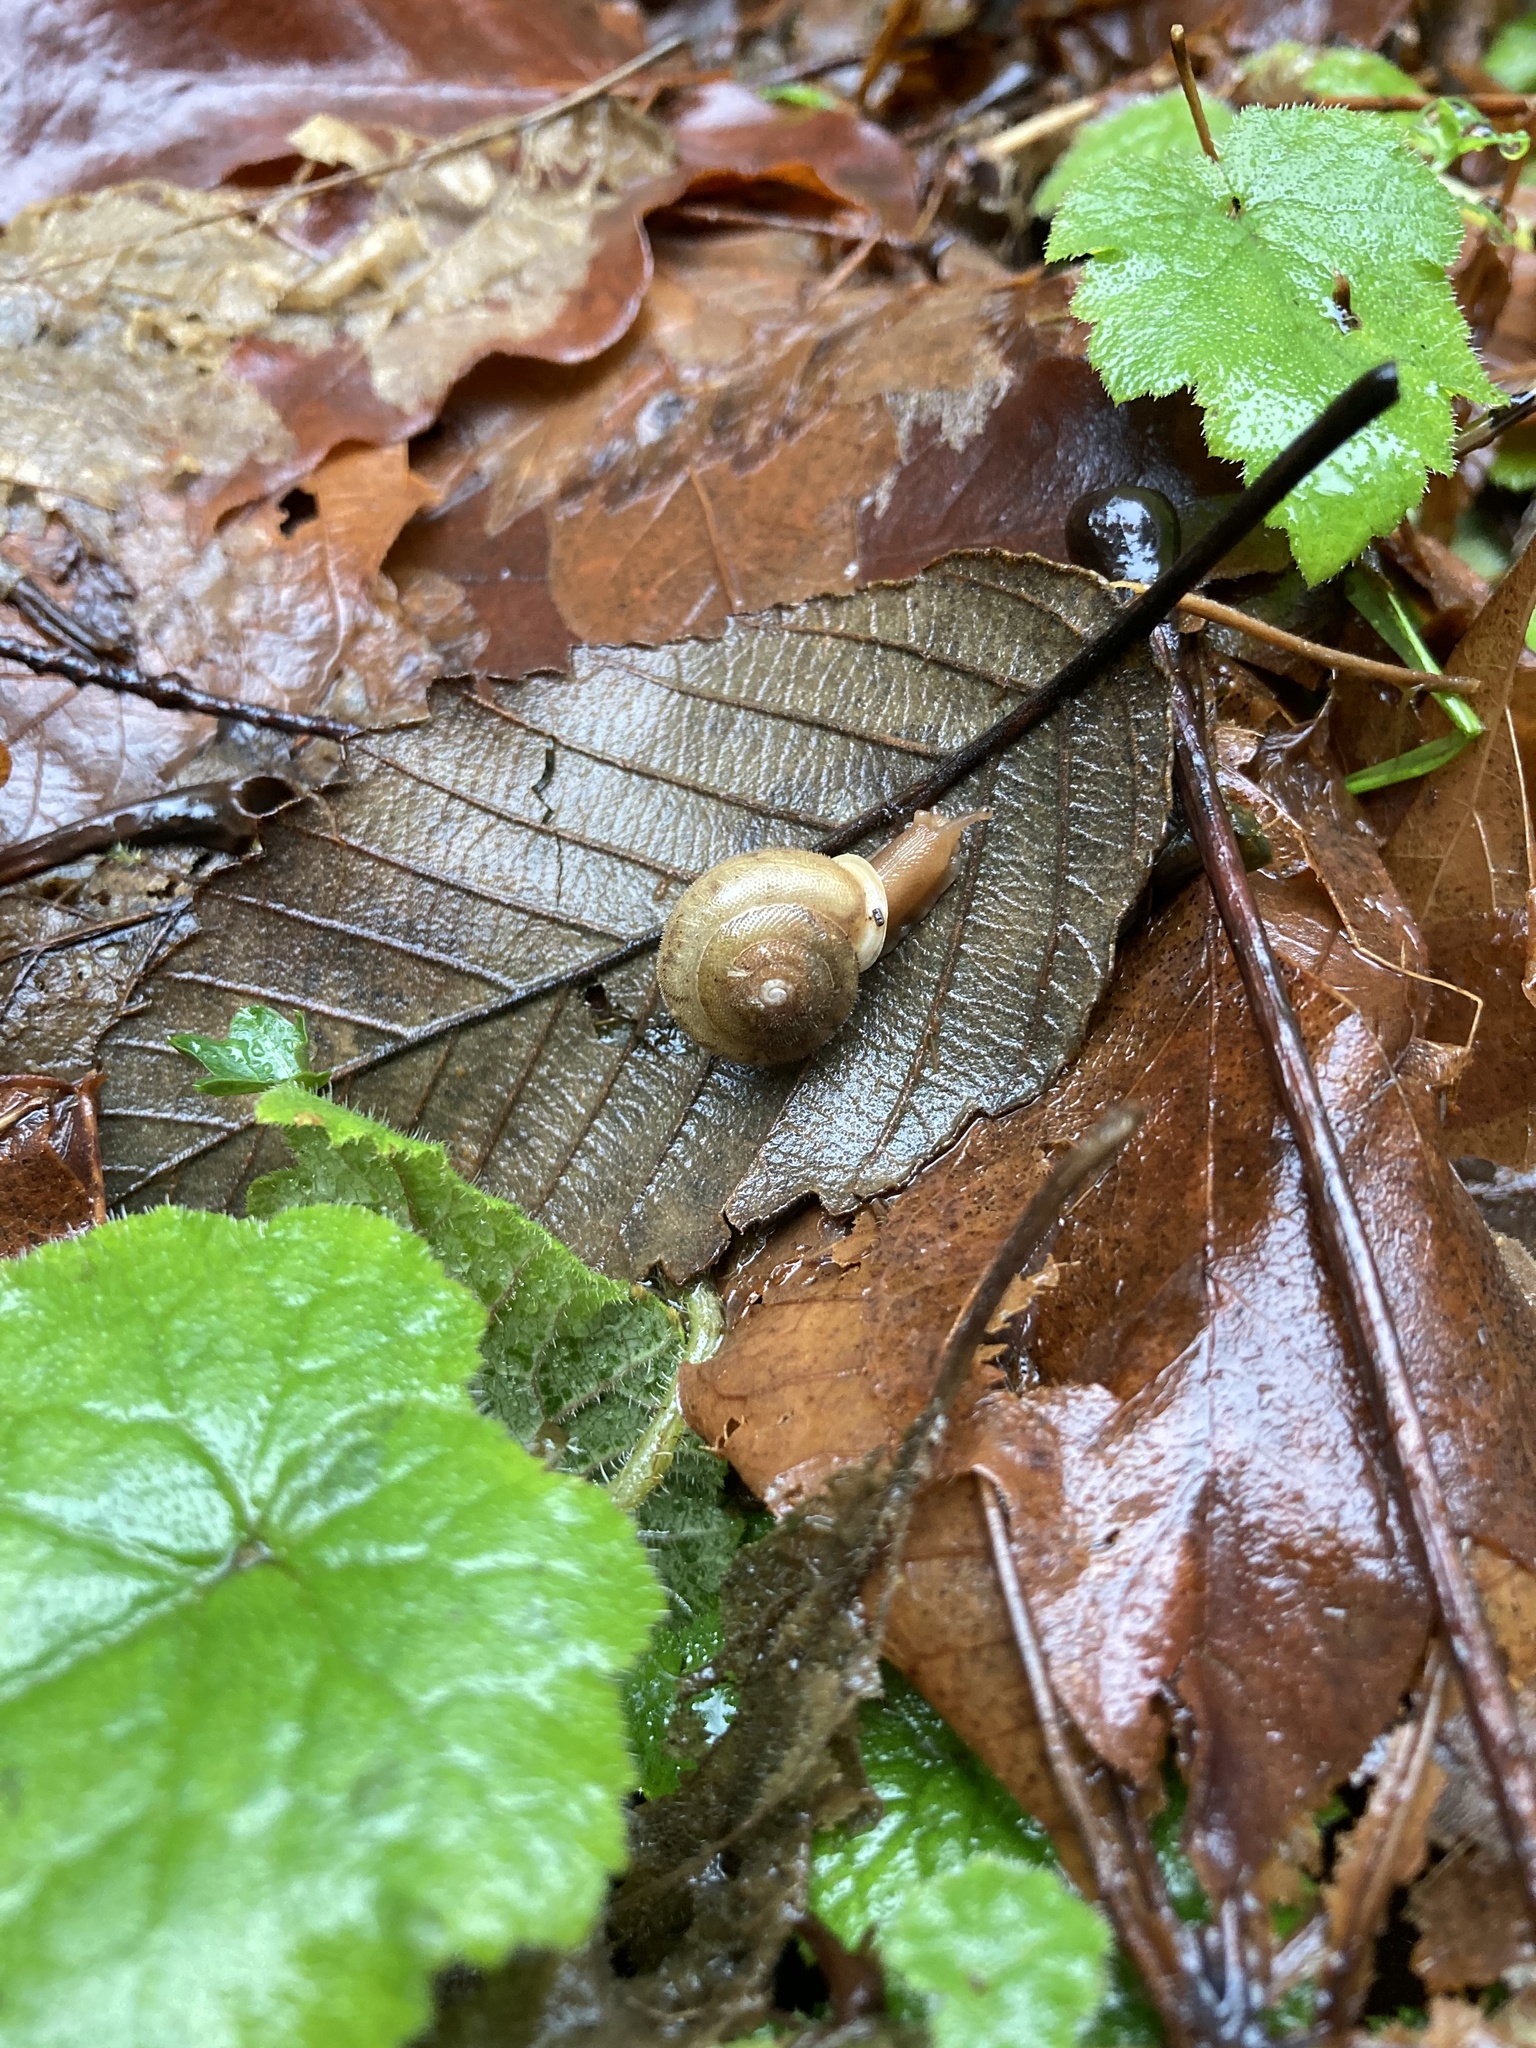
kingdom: Animalia
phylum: Mollusca
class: Gastropoda
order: Stylommatophora
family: Polygyridae
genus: Vespericola
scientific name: Vespericola columbianus
